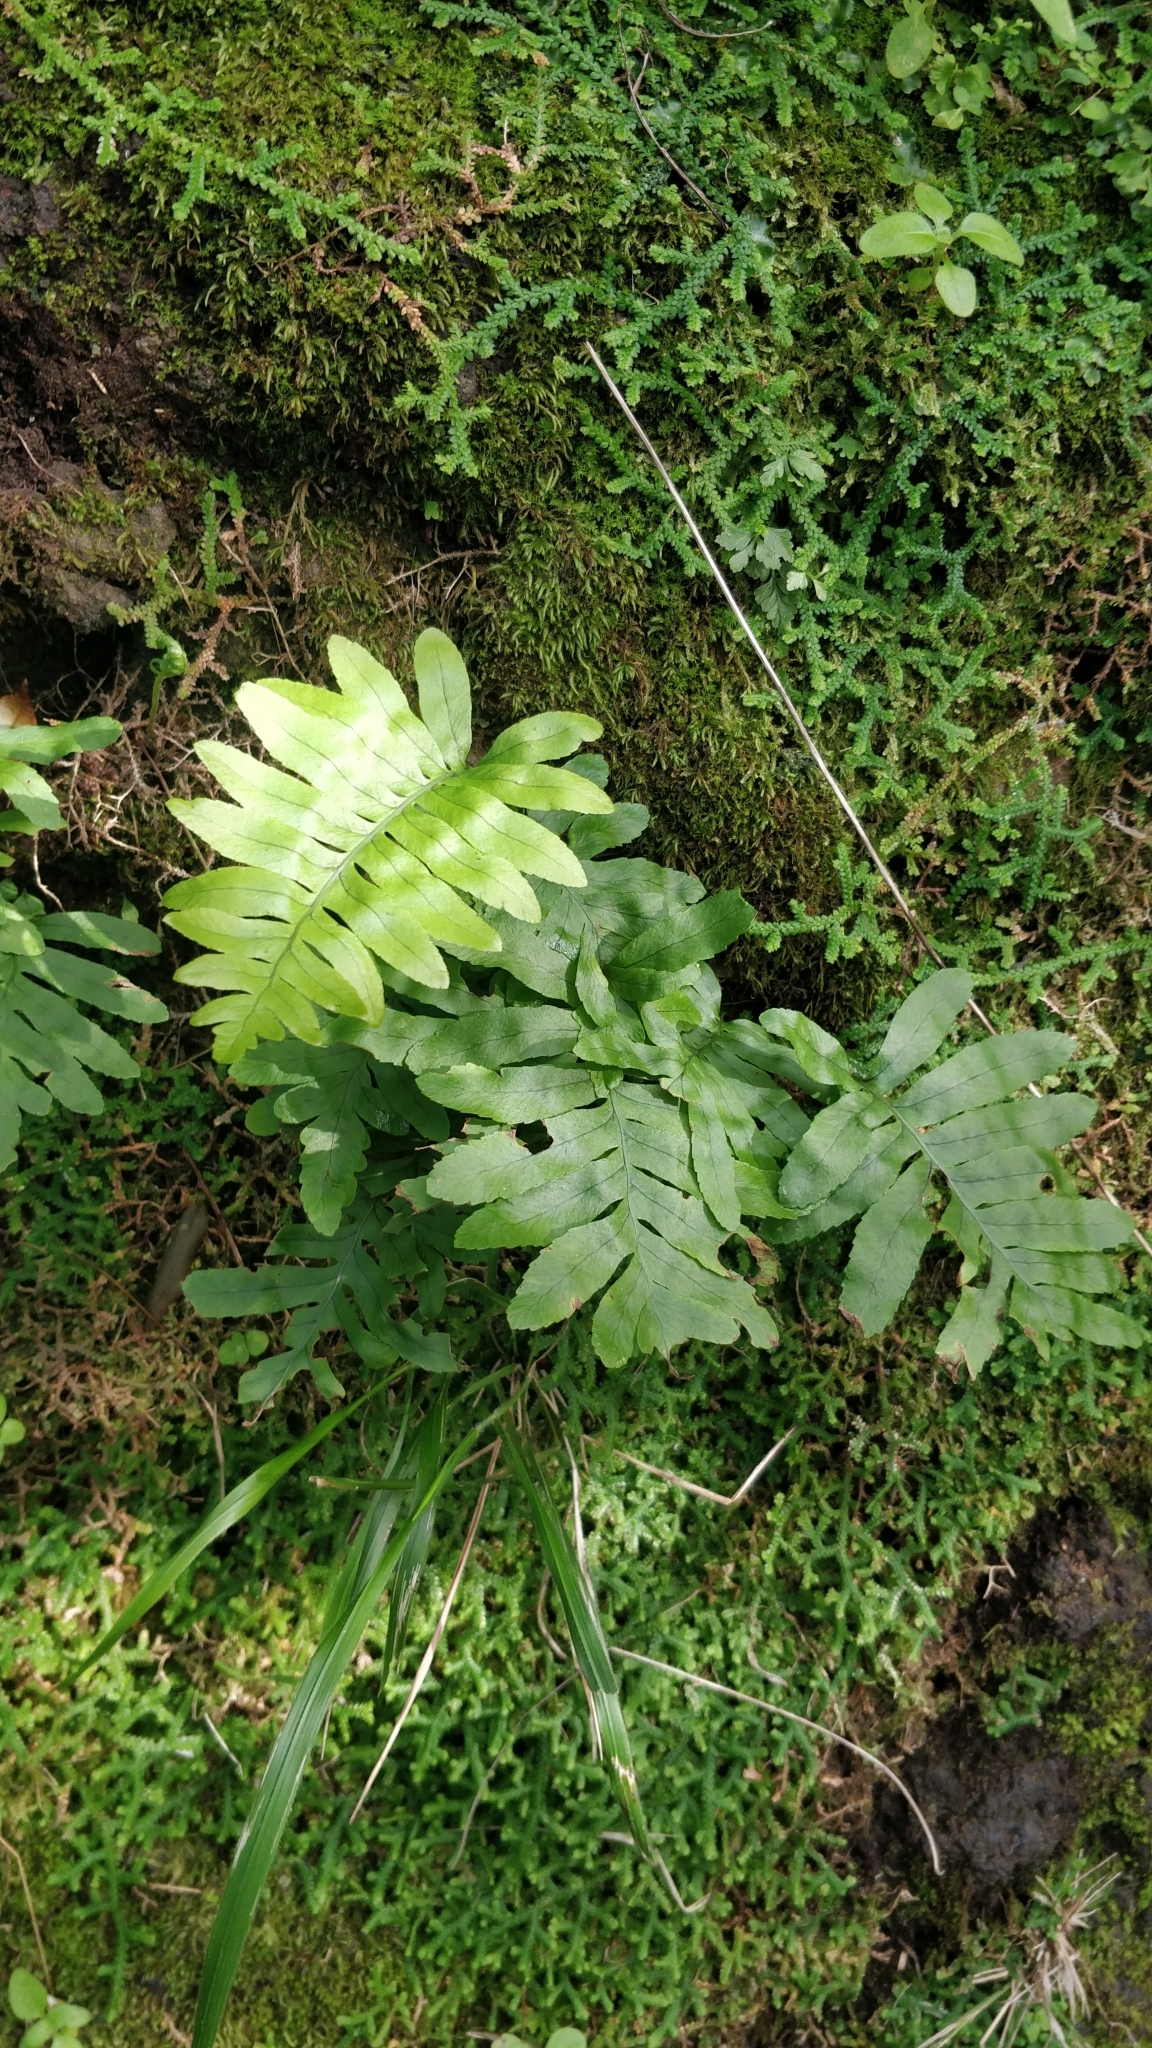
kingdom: Plantae
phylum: Tracheophyta
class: Polypodiopsida
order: Polypodiales
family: Polypodiaceae
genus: Polypodium
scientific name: Polypodium macaronesicum
